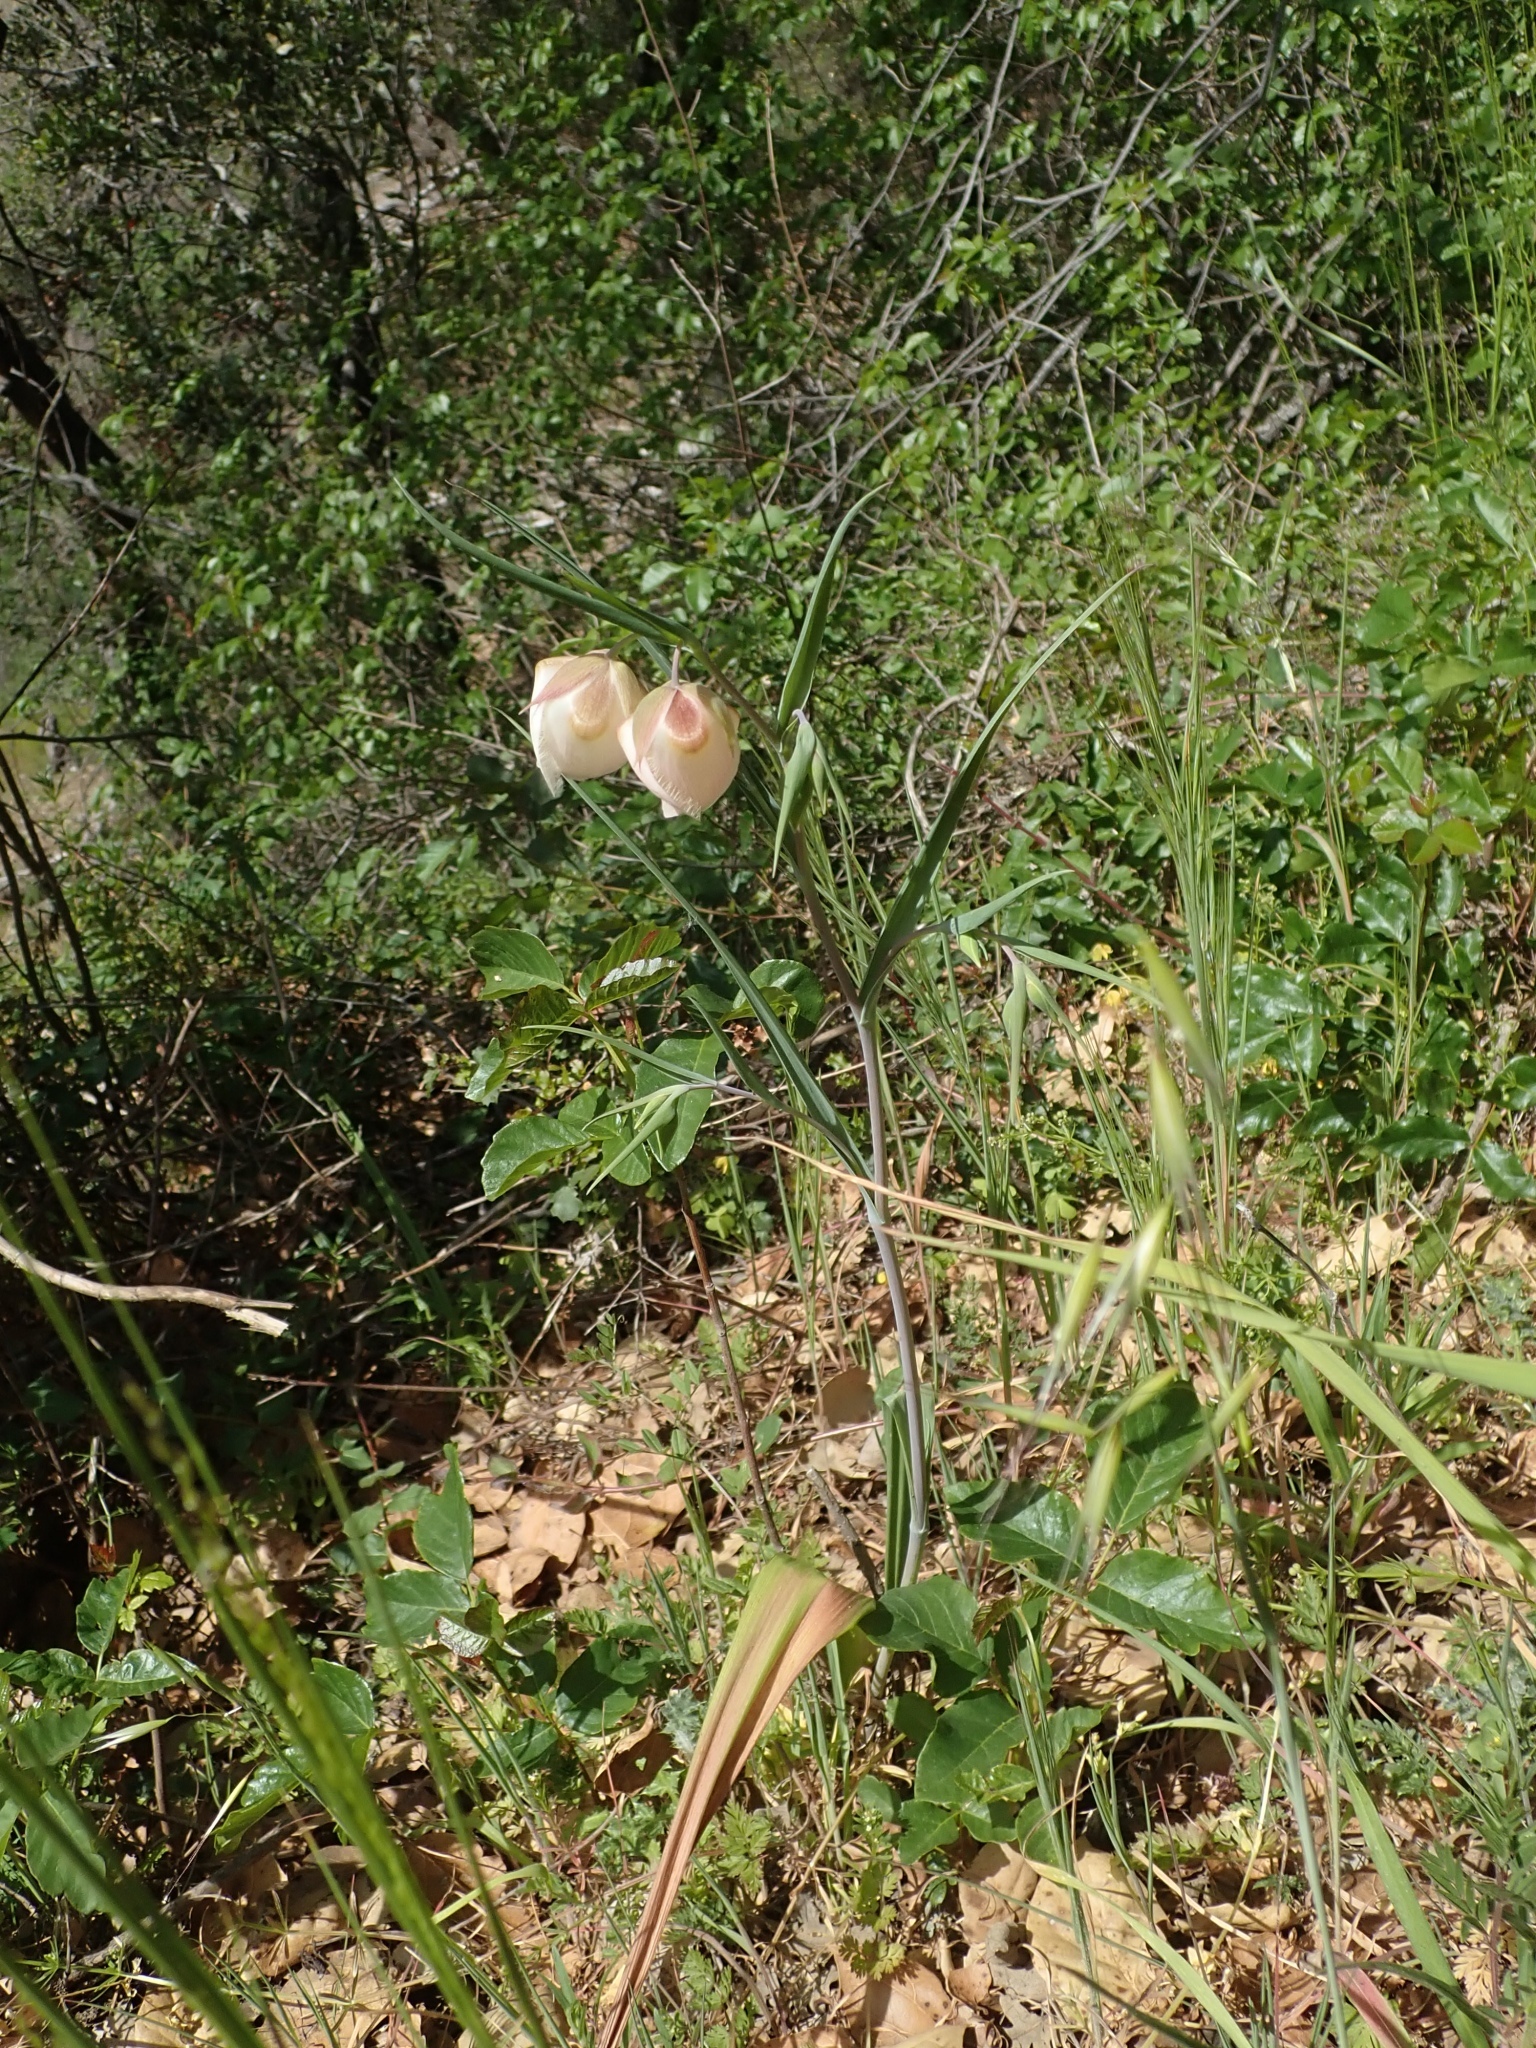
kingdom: Plantae
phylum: Tracheophyta
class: Liliopsida
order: Liliales
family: Liliaceae
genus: Calochortus
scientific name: Calochortus albus
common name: Fairy-lantern
